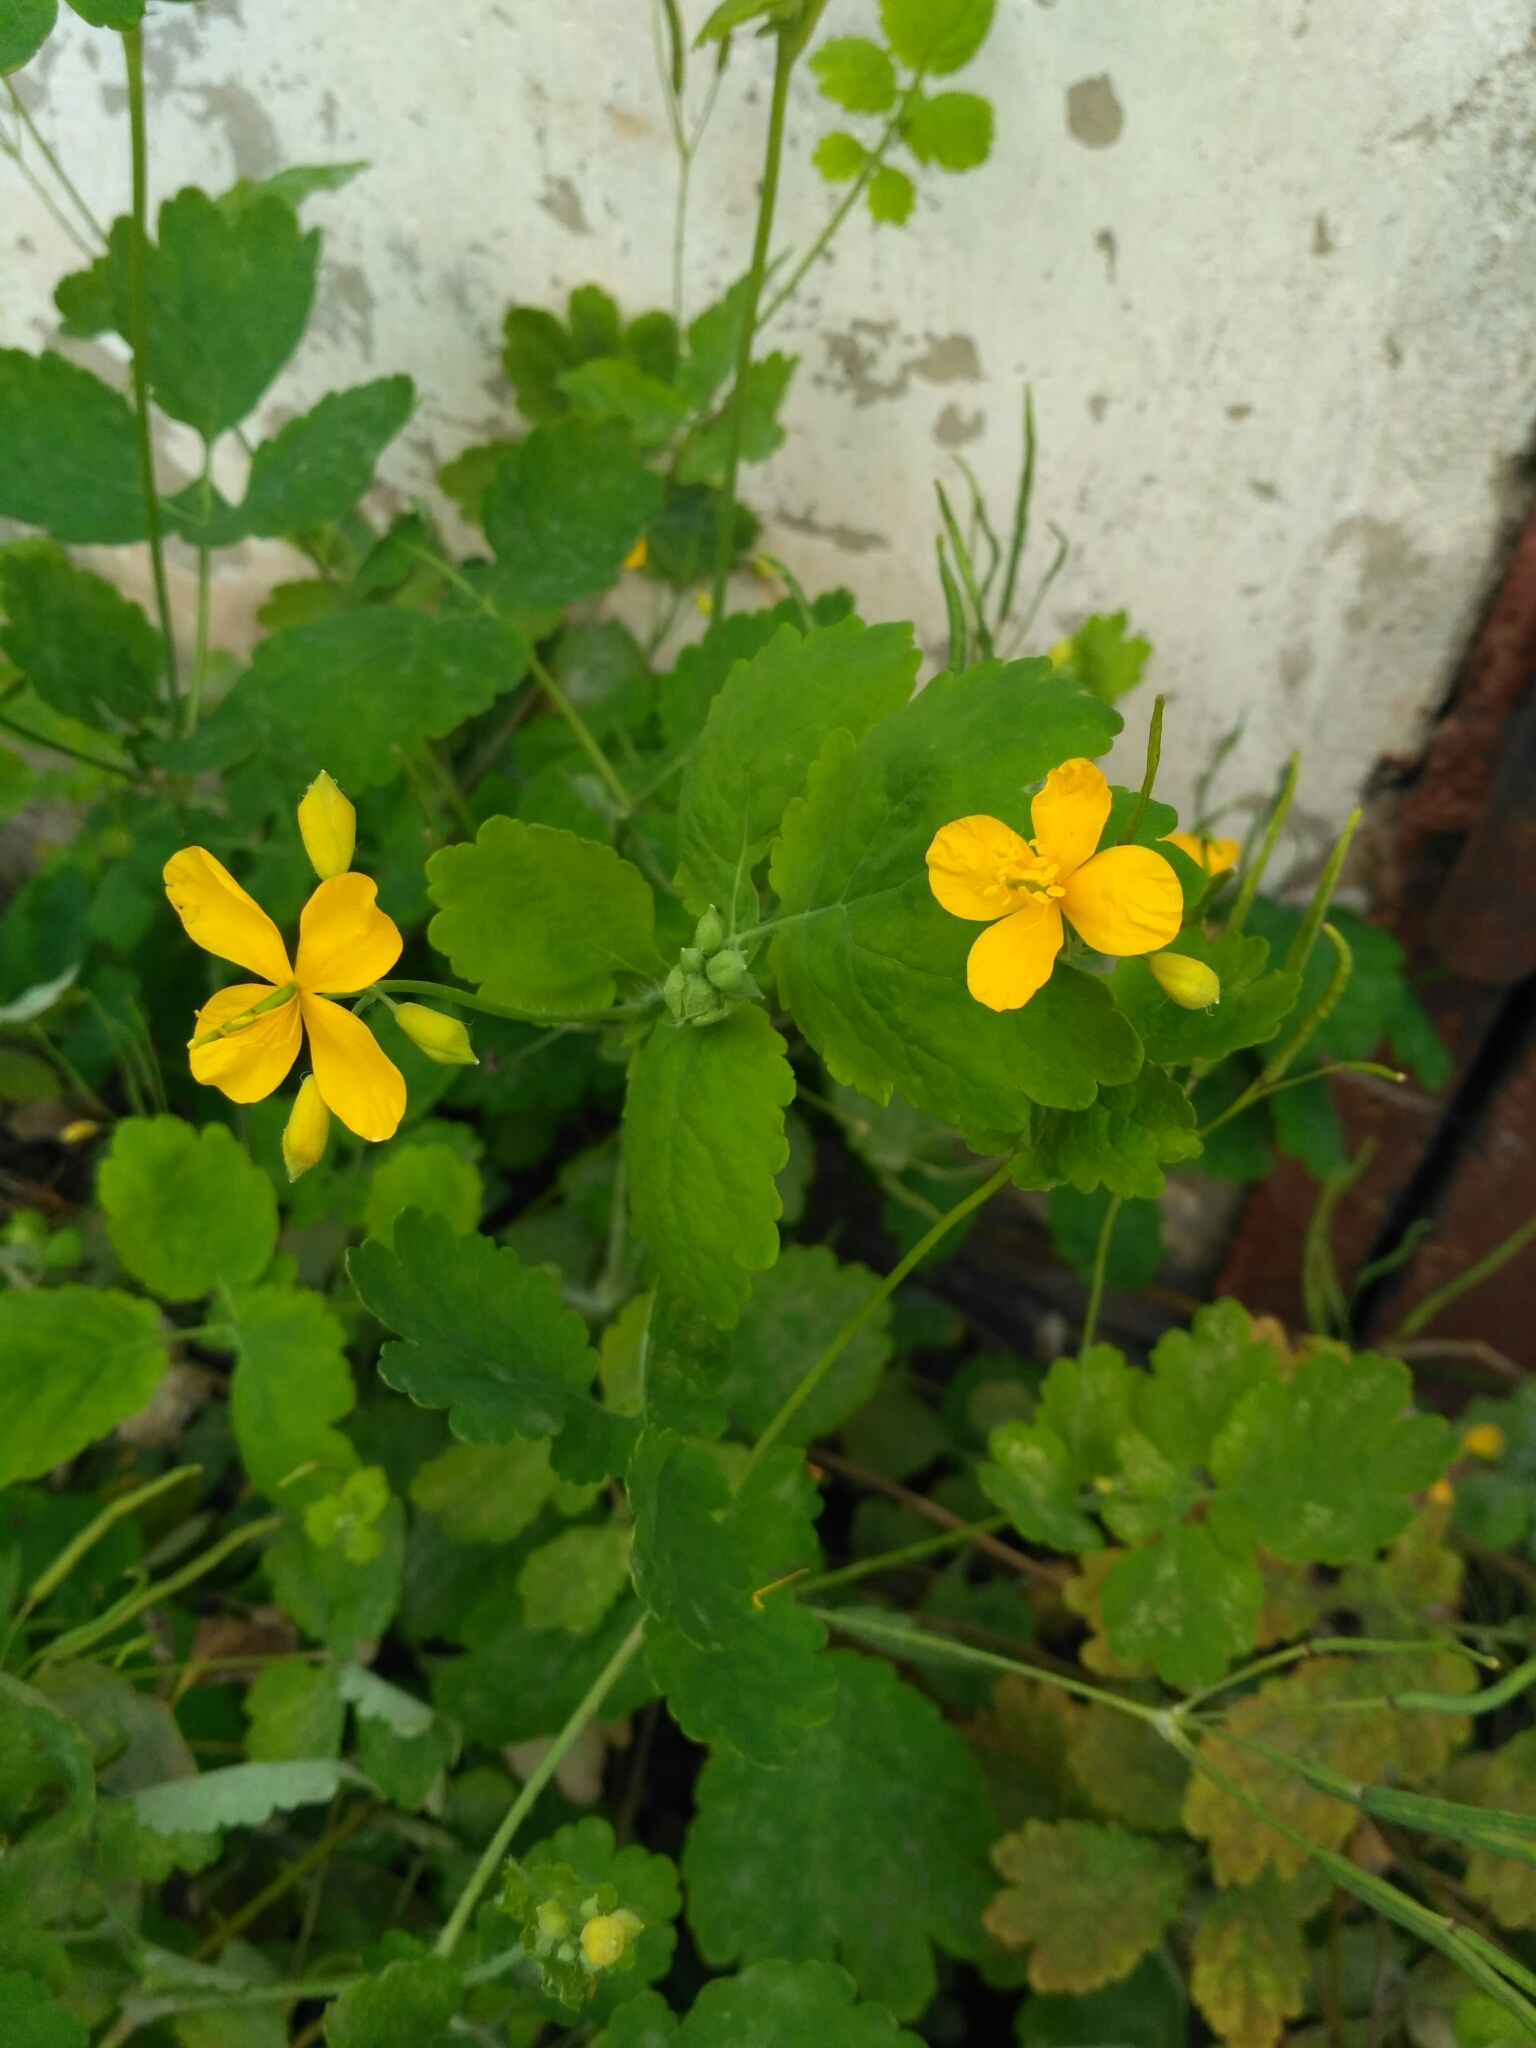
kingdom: Plantae
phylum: Tracheophyta
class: Magnoliopsida
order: Ranunculales
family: Papaveraceae
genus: Chelidonium
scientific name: Chelidonium majus
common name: Greater celandine
